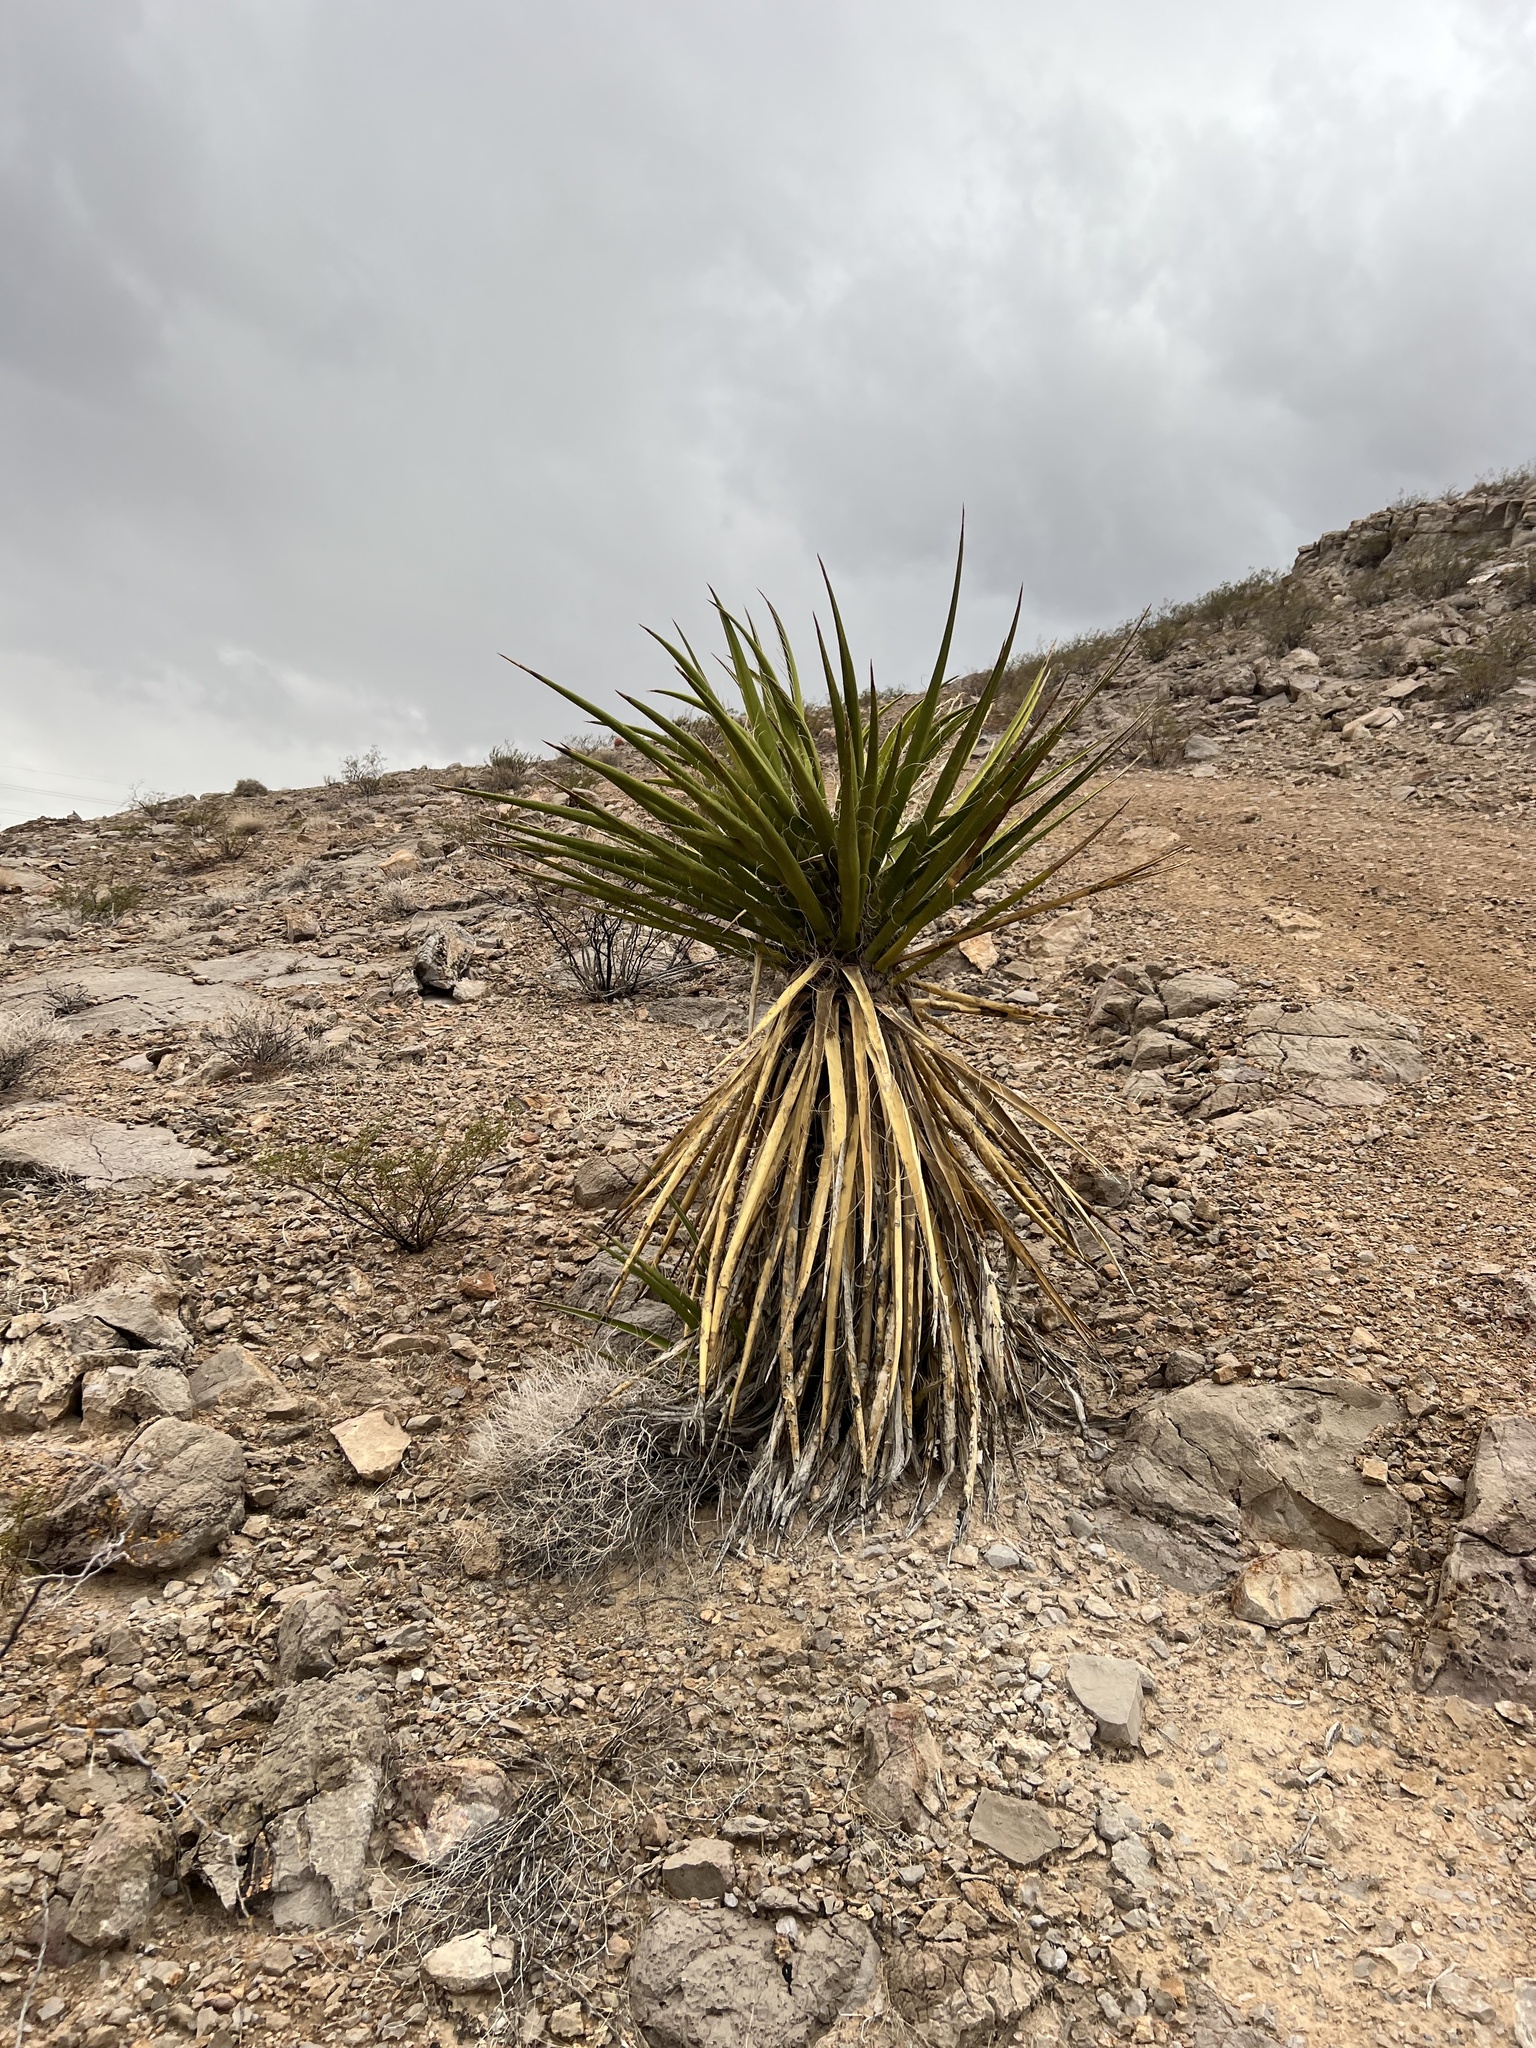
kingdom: Plantae
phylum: Tracheophyta
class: Liliopsida
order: Asparagales
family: Asparagaceae
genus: Yucca
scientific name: Yucca schidigera
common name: Mojave yucca
